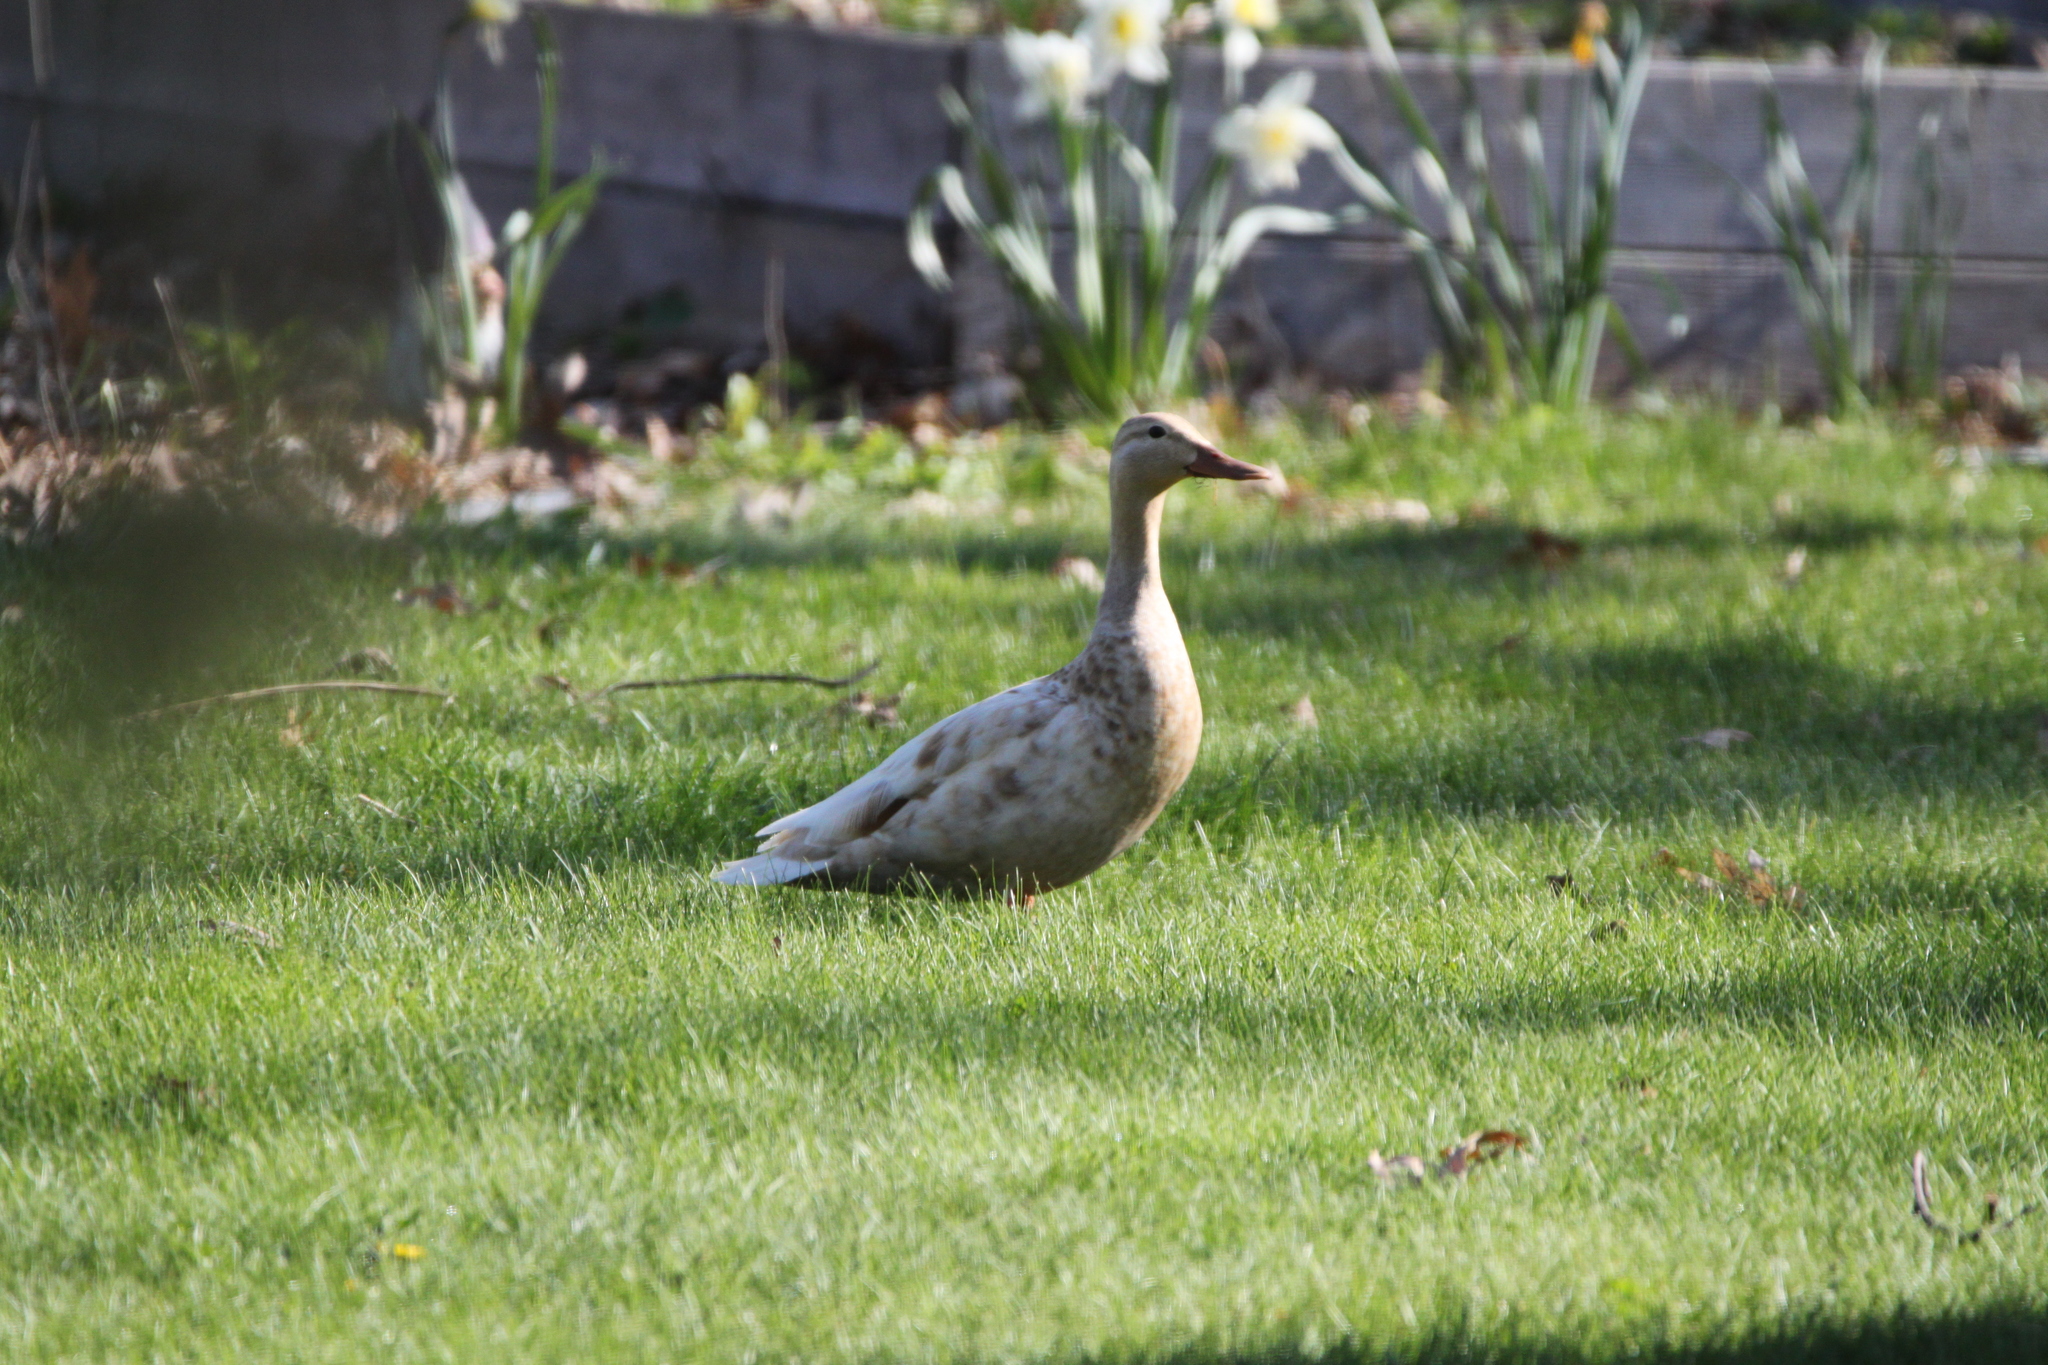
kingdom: Animalia
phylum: Chordata
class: Aves
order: Anseriformes
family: Anatidae
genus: Anas
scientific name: Anas platyrhynchos
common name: Mallard
